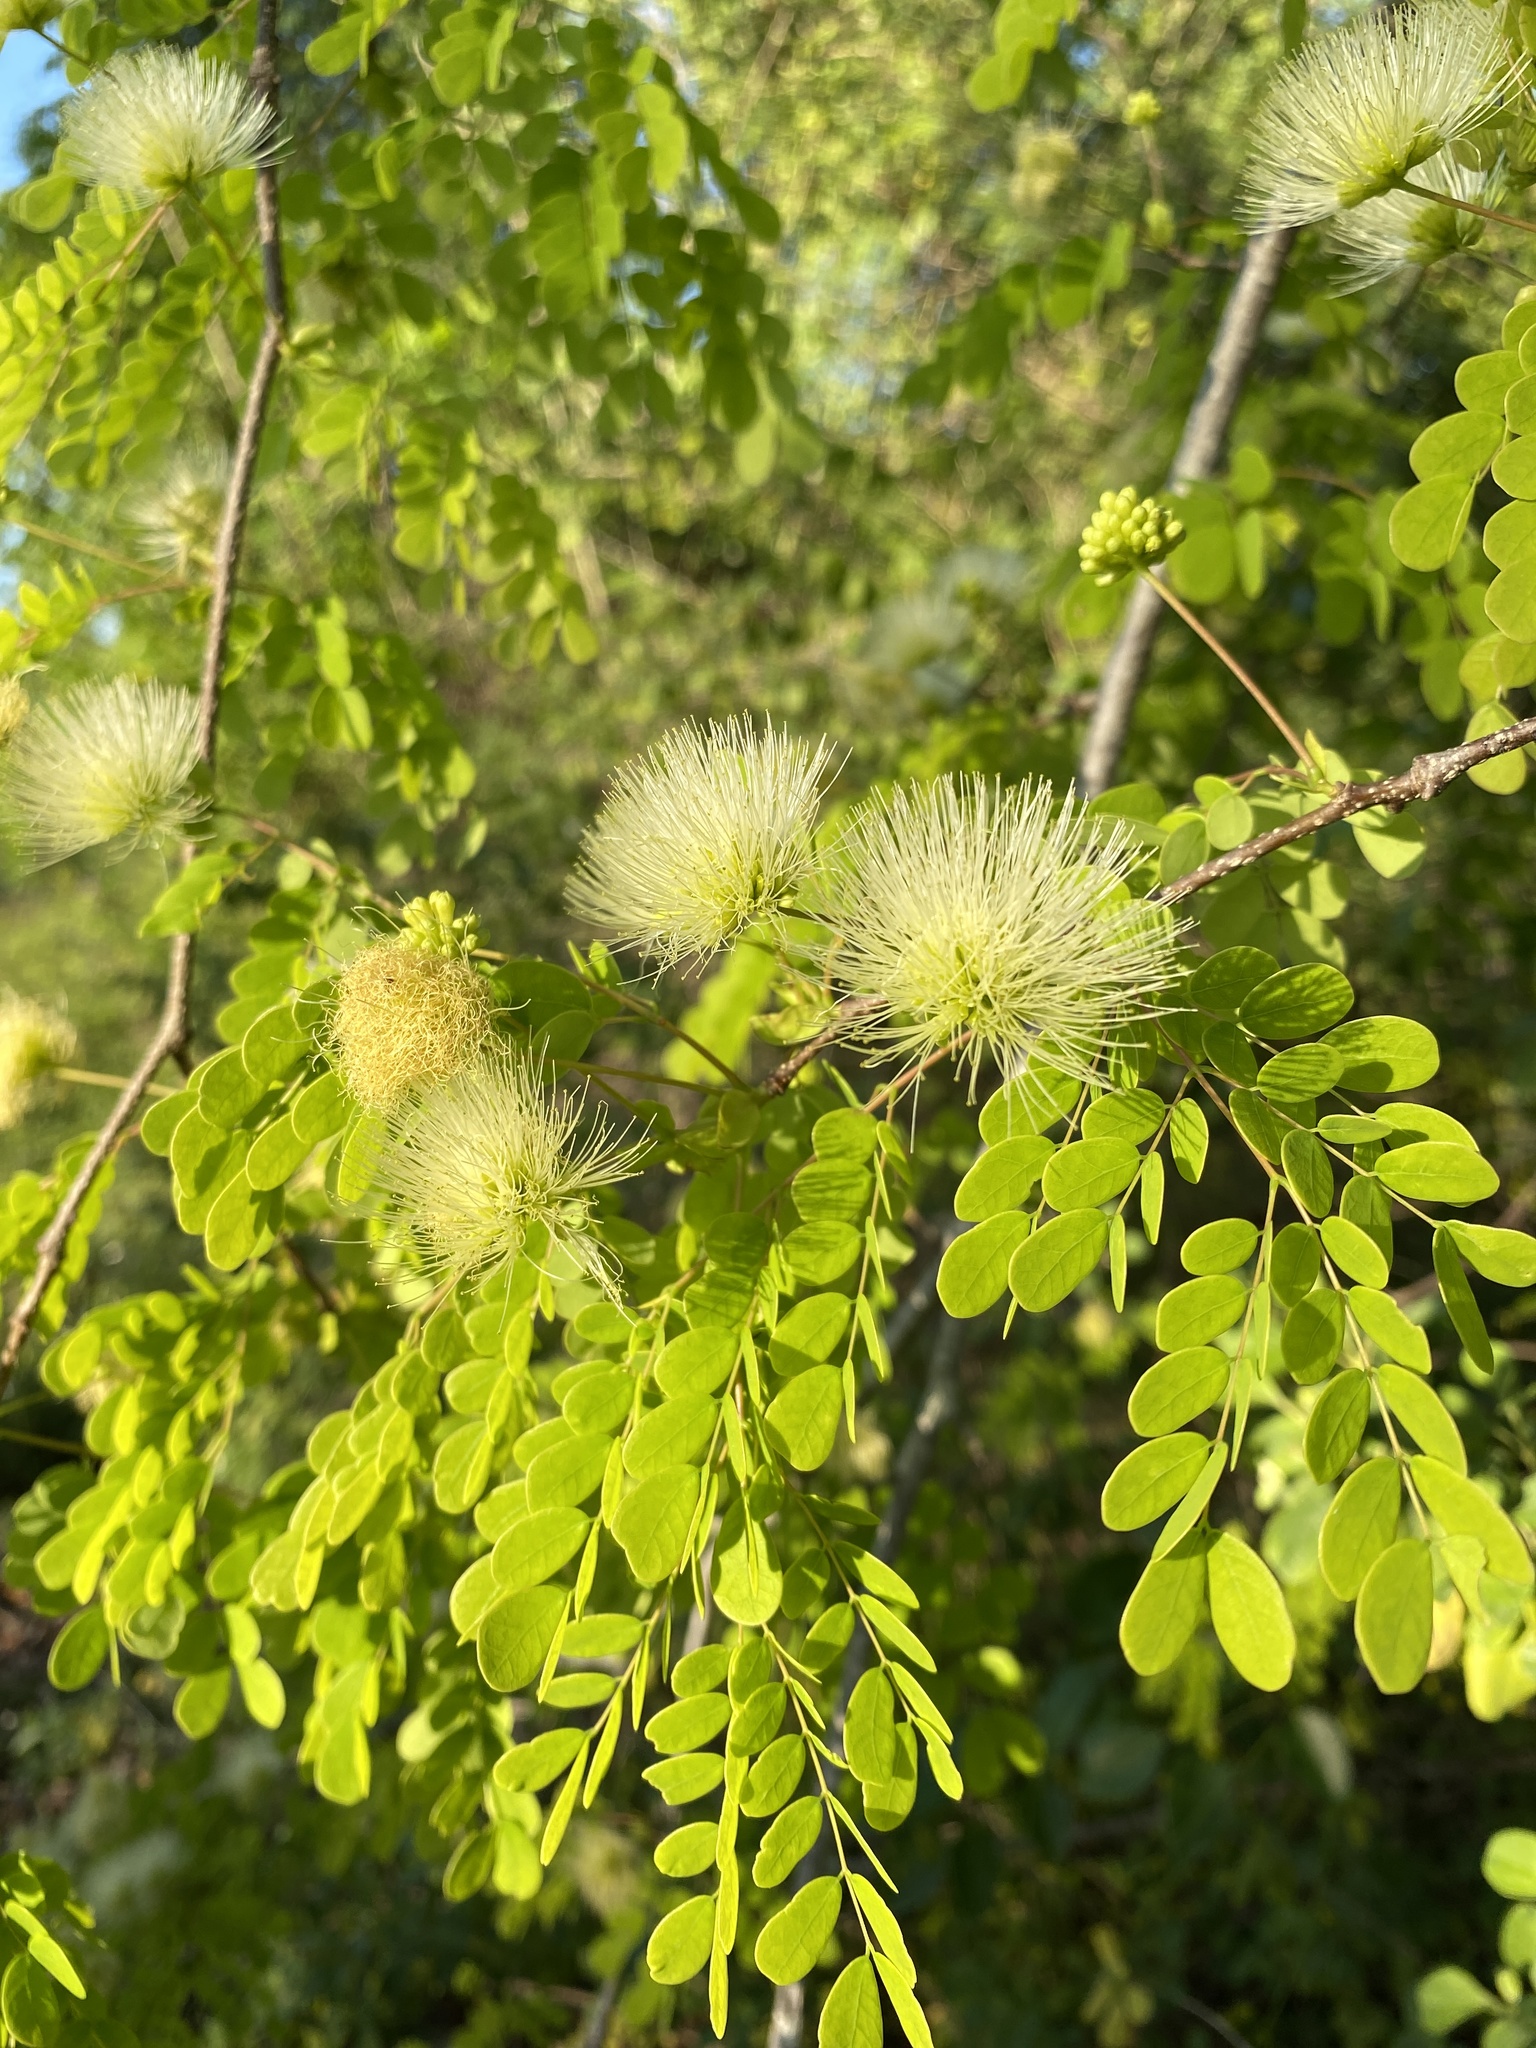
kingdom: Plantae
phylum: Tracheophyta
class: Magnoliopsida
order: Fabales
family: Fabaceae
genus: Lysiloma
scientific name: Lysiloma sabicu
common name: Horseflesh mahogany
